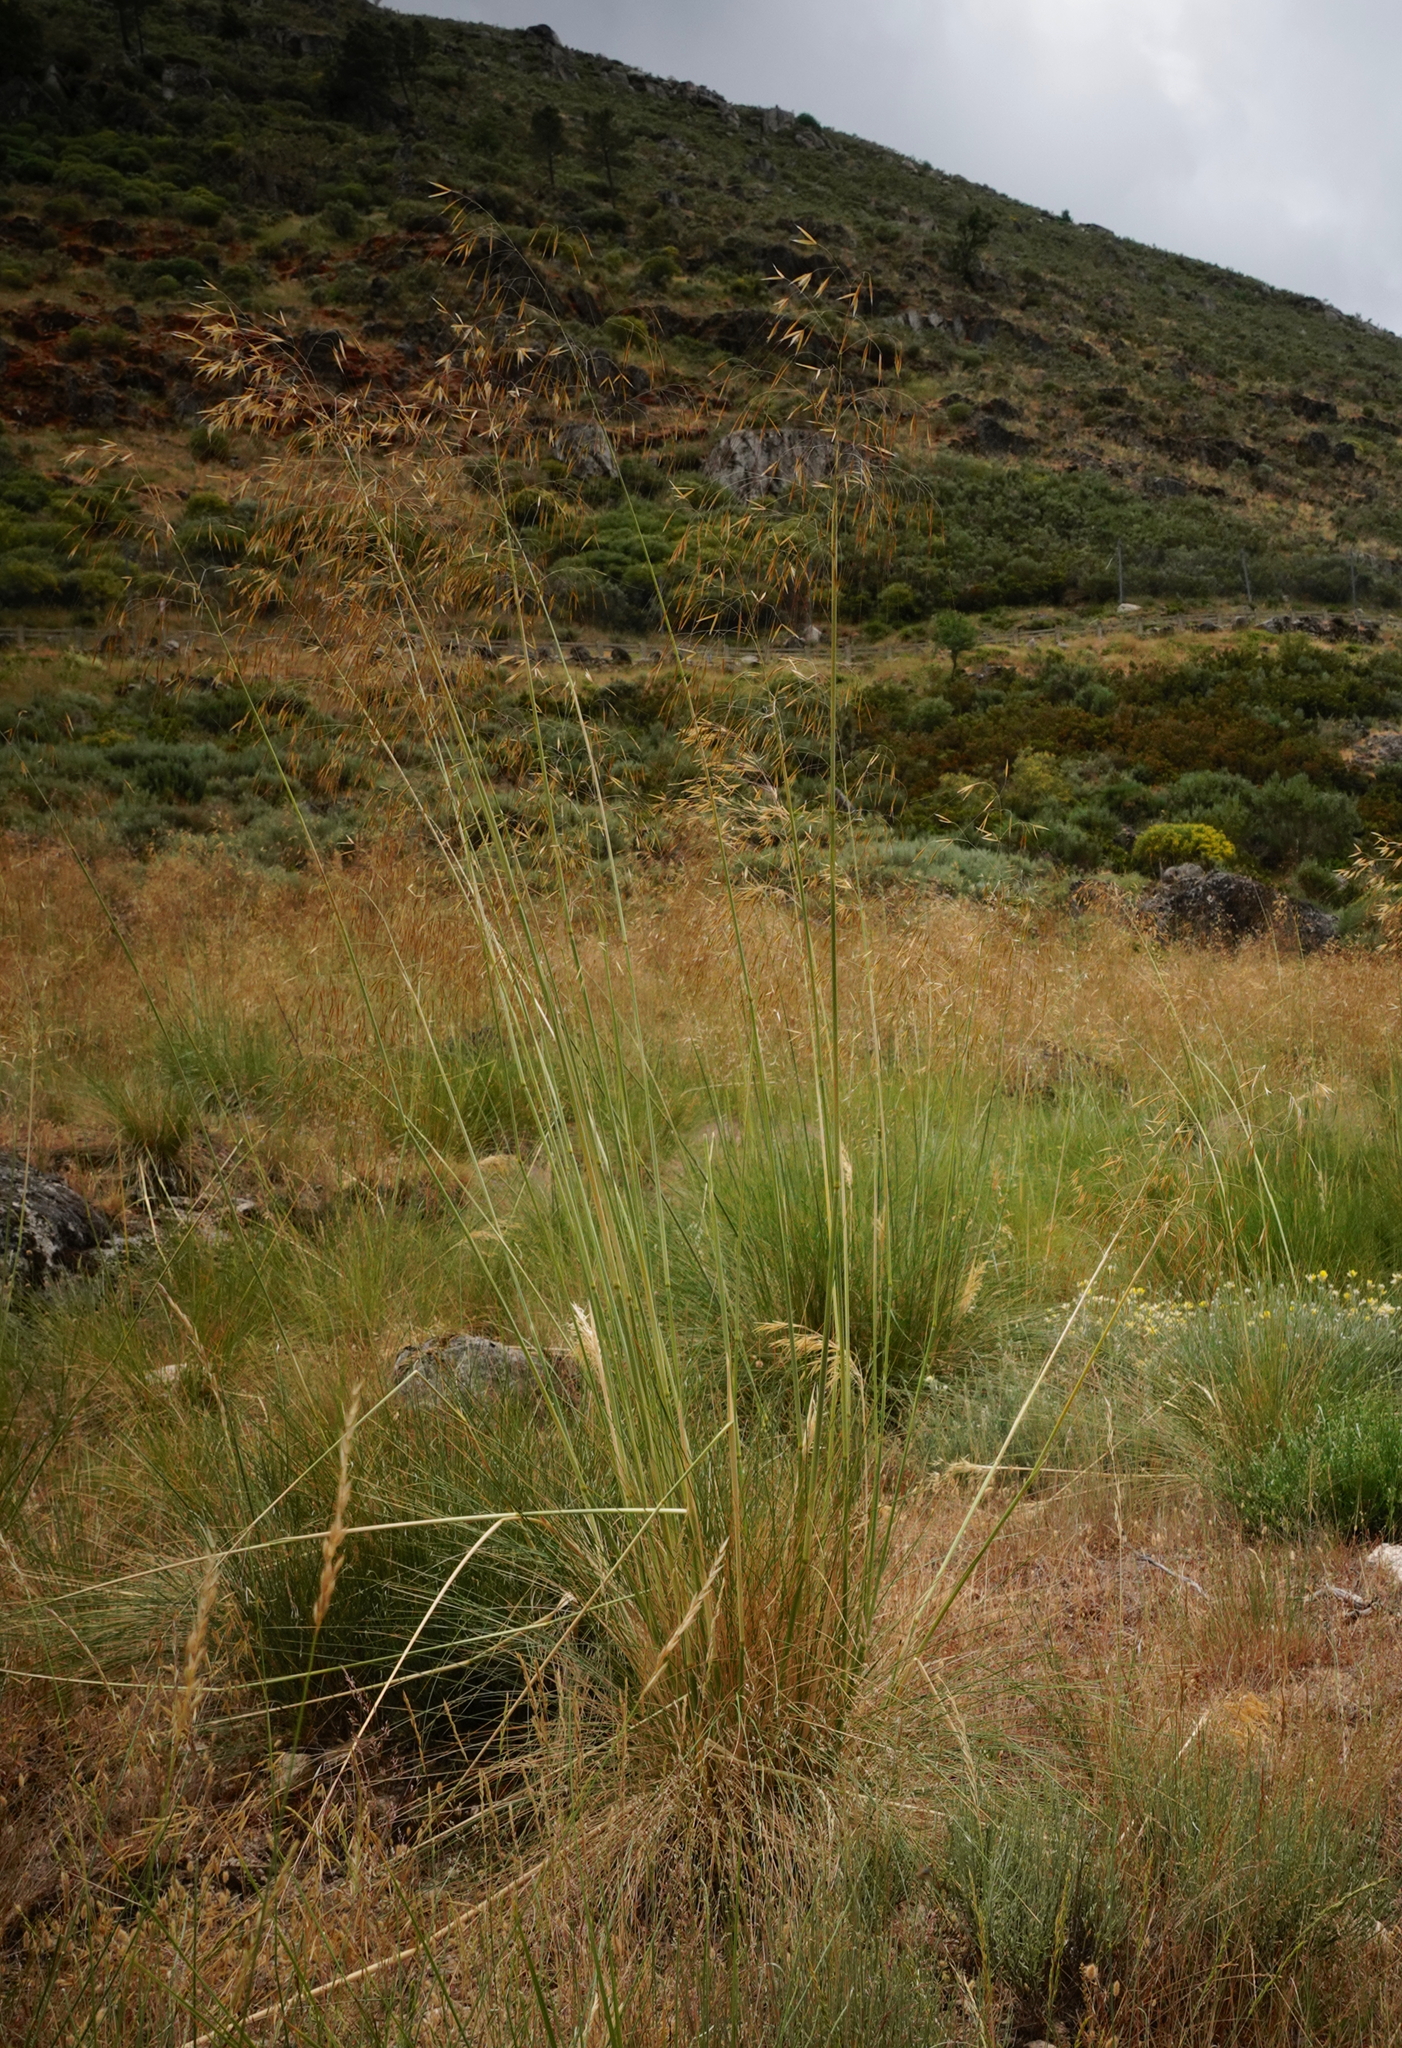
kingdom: Plantae
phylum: Tracheophyta
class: Liliopsida
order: Poales
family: Poaceae
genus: Celtica
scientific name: Celtica gigantea
